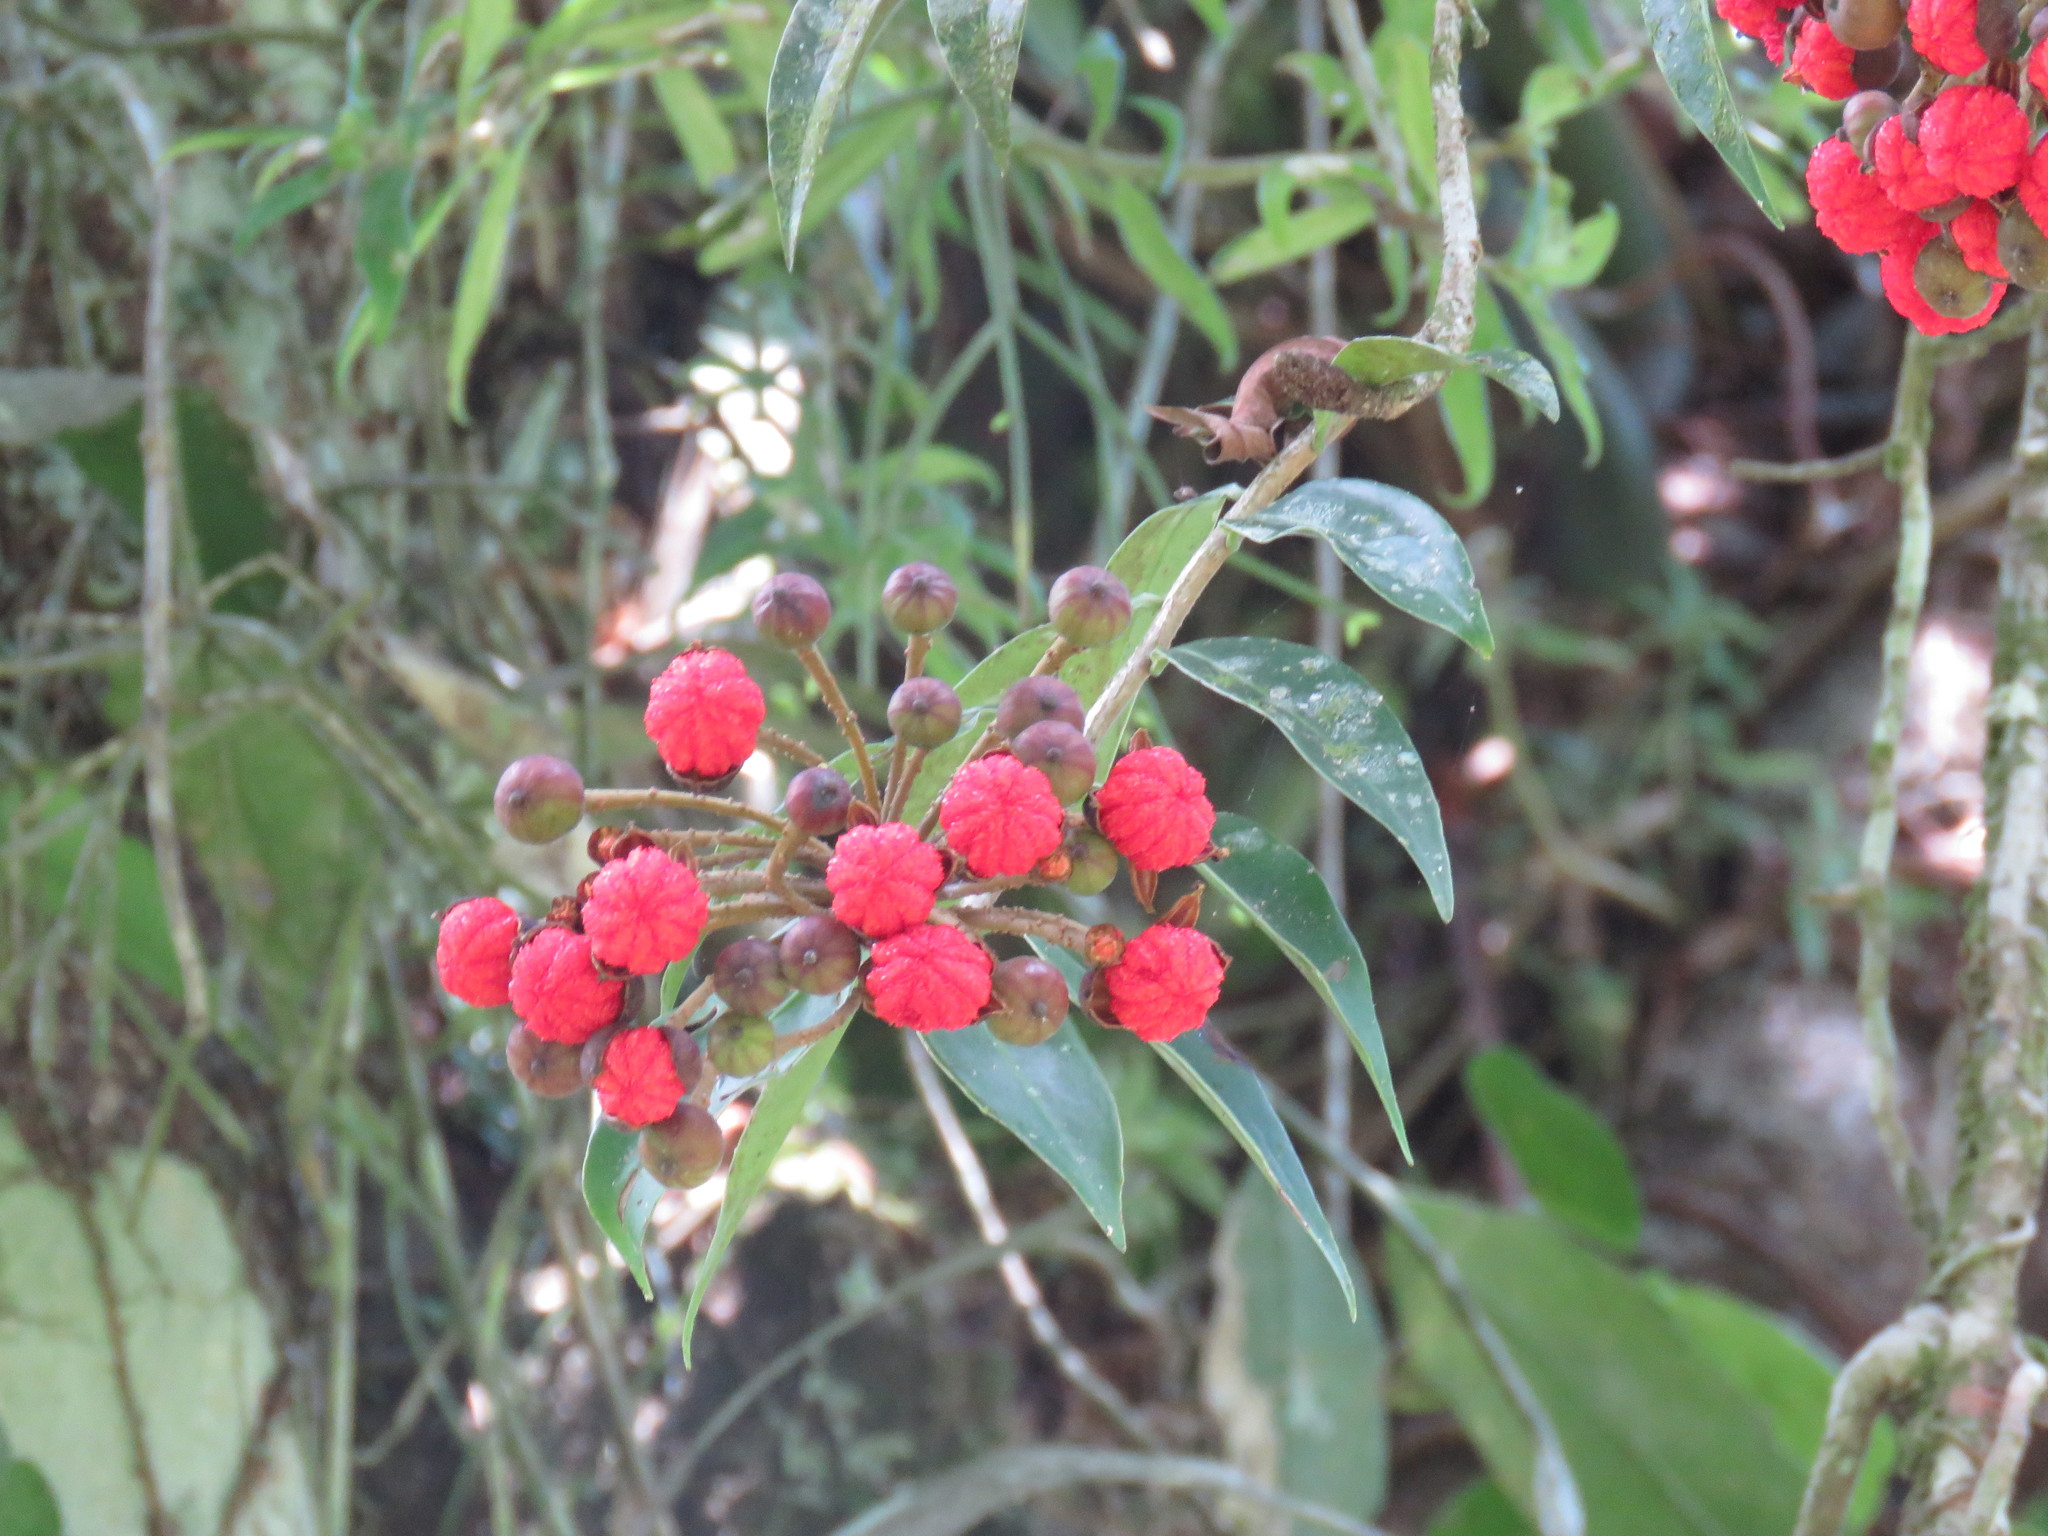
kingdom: Plantae
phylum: Tracheophyta
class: Magnoliopsida
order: Ericales
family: Marcgraviaceae
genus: Marcgravia
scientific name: Marcgravia mexicana
